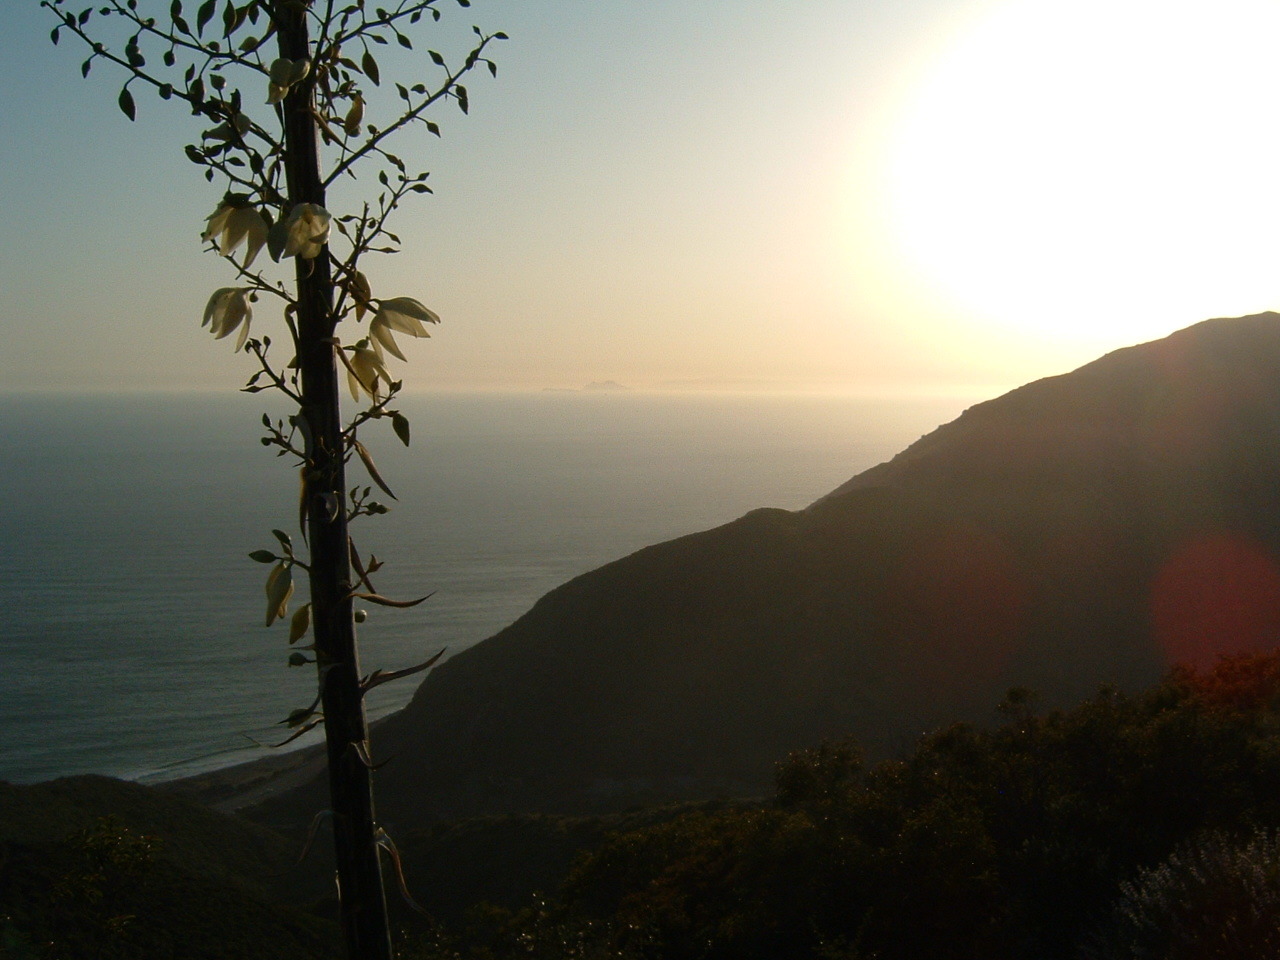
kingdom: Plantae
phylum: Tracheophyta
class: Liliopsida
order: Asparagales
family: Asparagaceae
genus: Hesperoyucca
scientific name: Hesperoyucca whipplei
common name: Our lord's-candle
